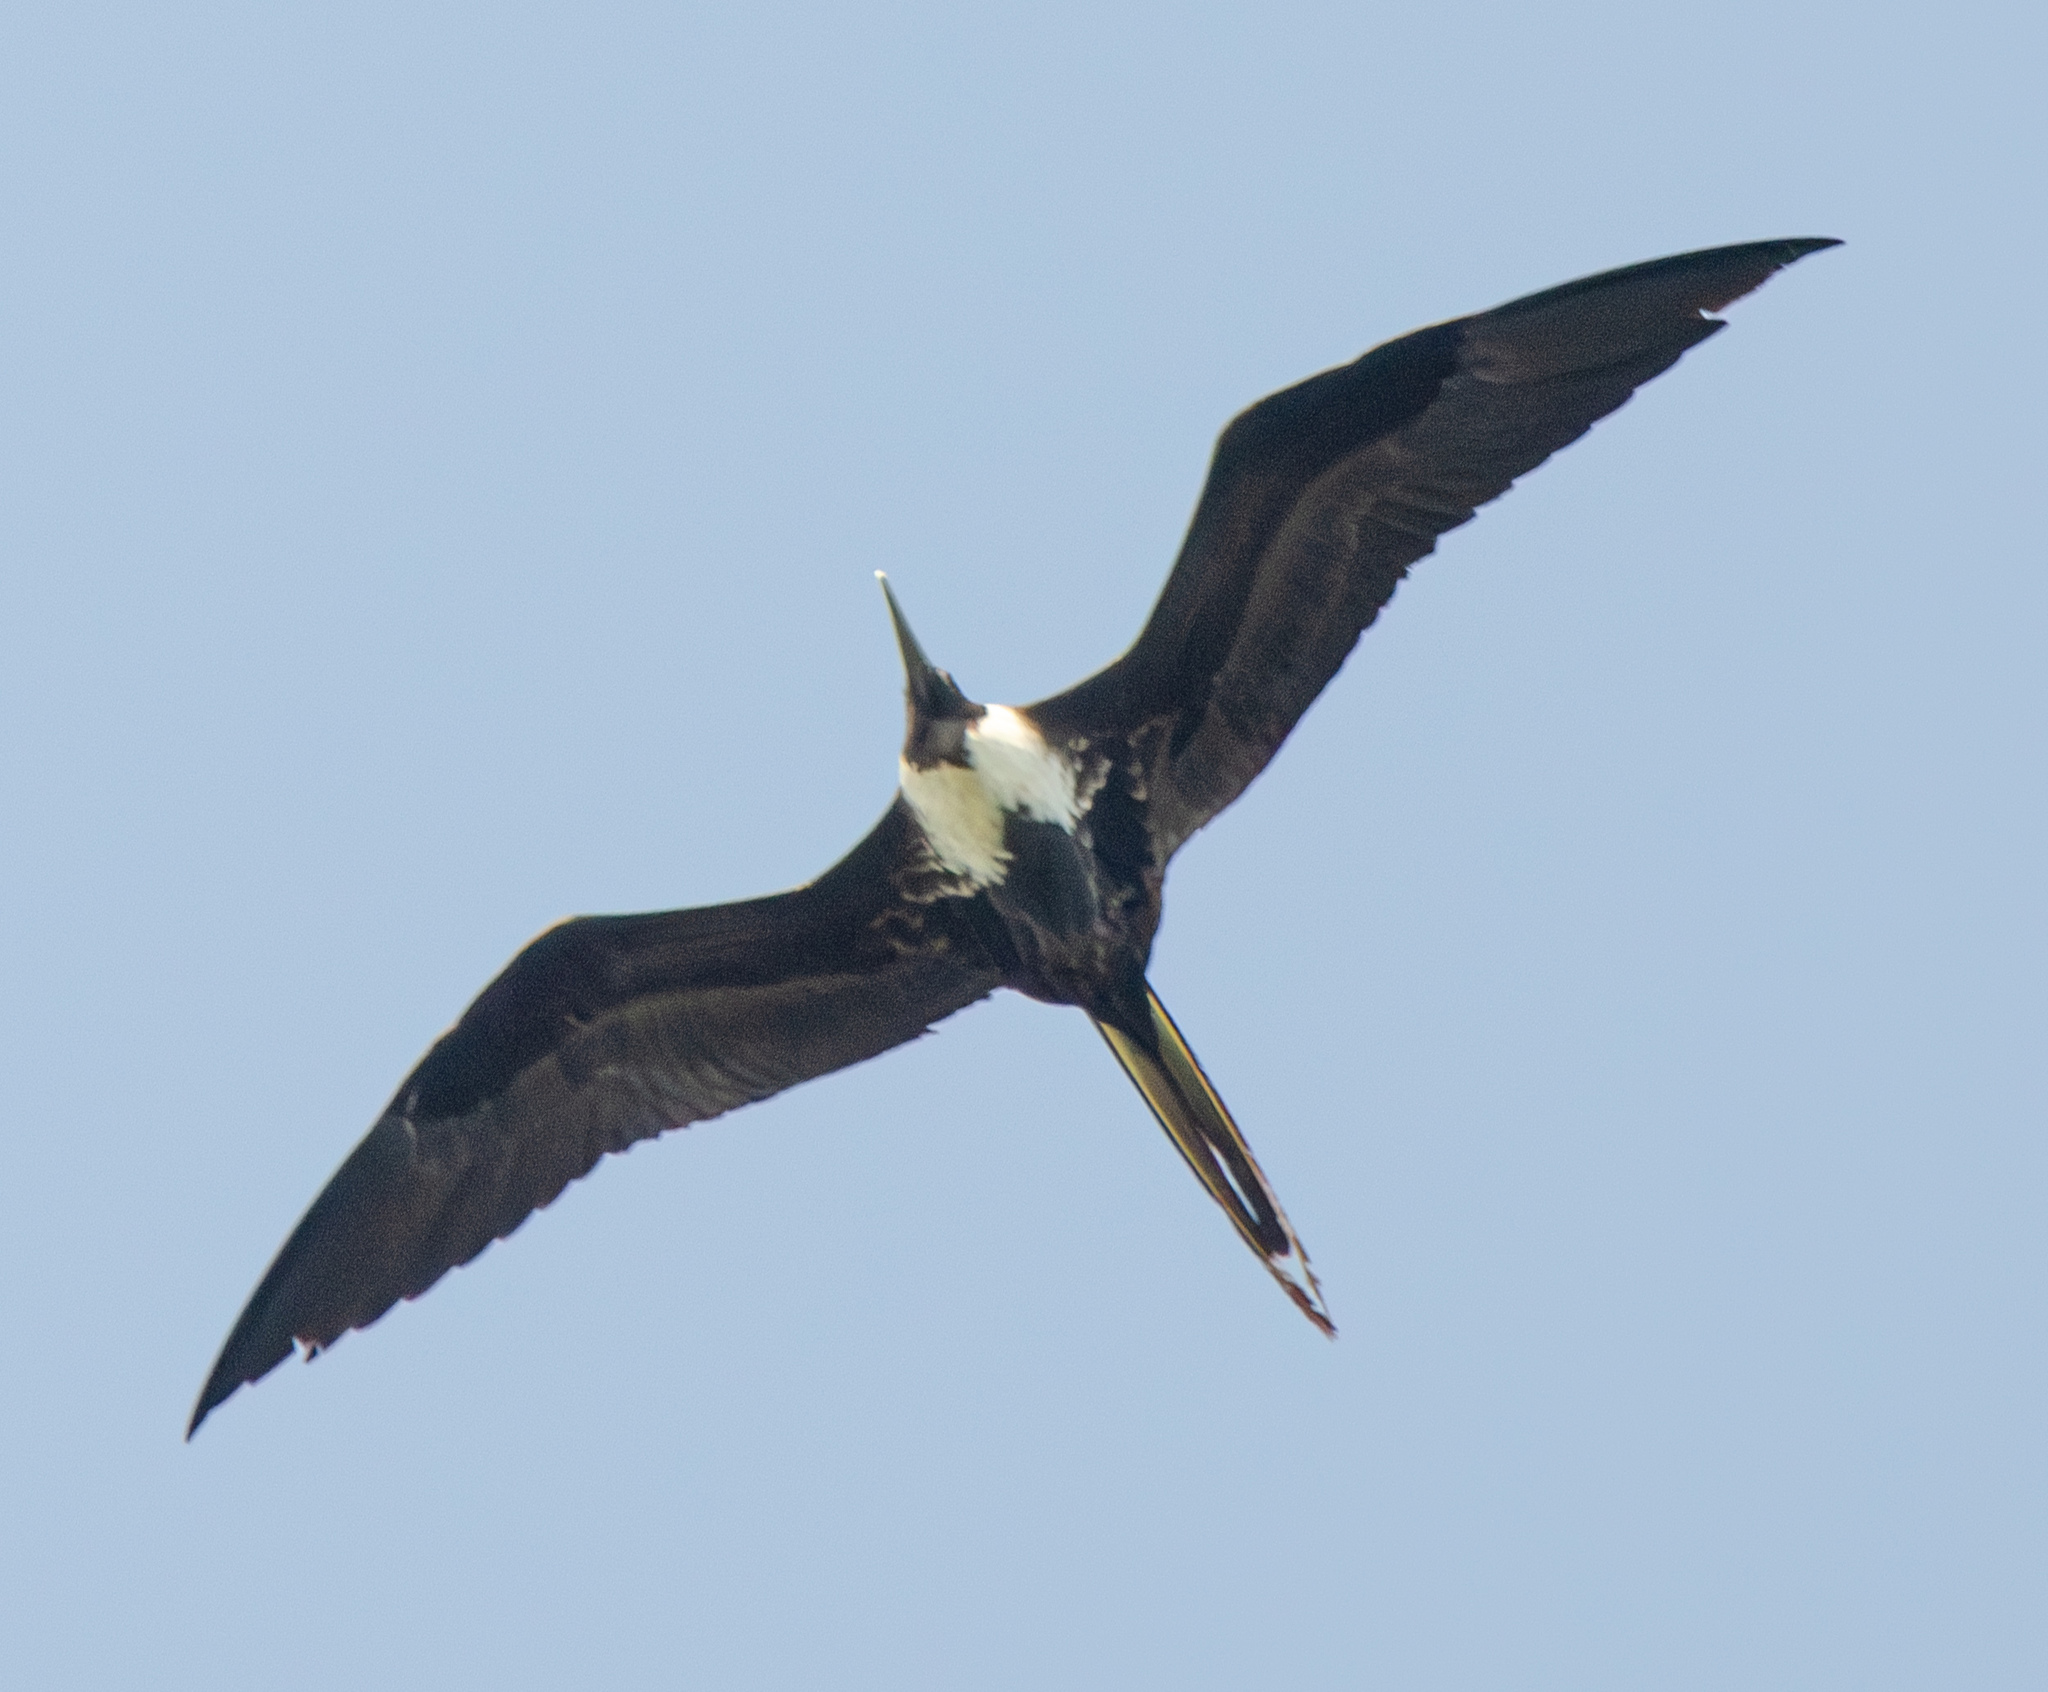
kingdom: Animalia
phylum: Chordata
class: Aves
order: Suliformes
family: Fregatidae
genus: Fregata
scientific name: Fregata magnificens
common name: Magnificent frigatebird
